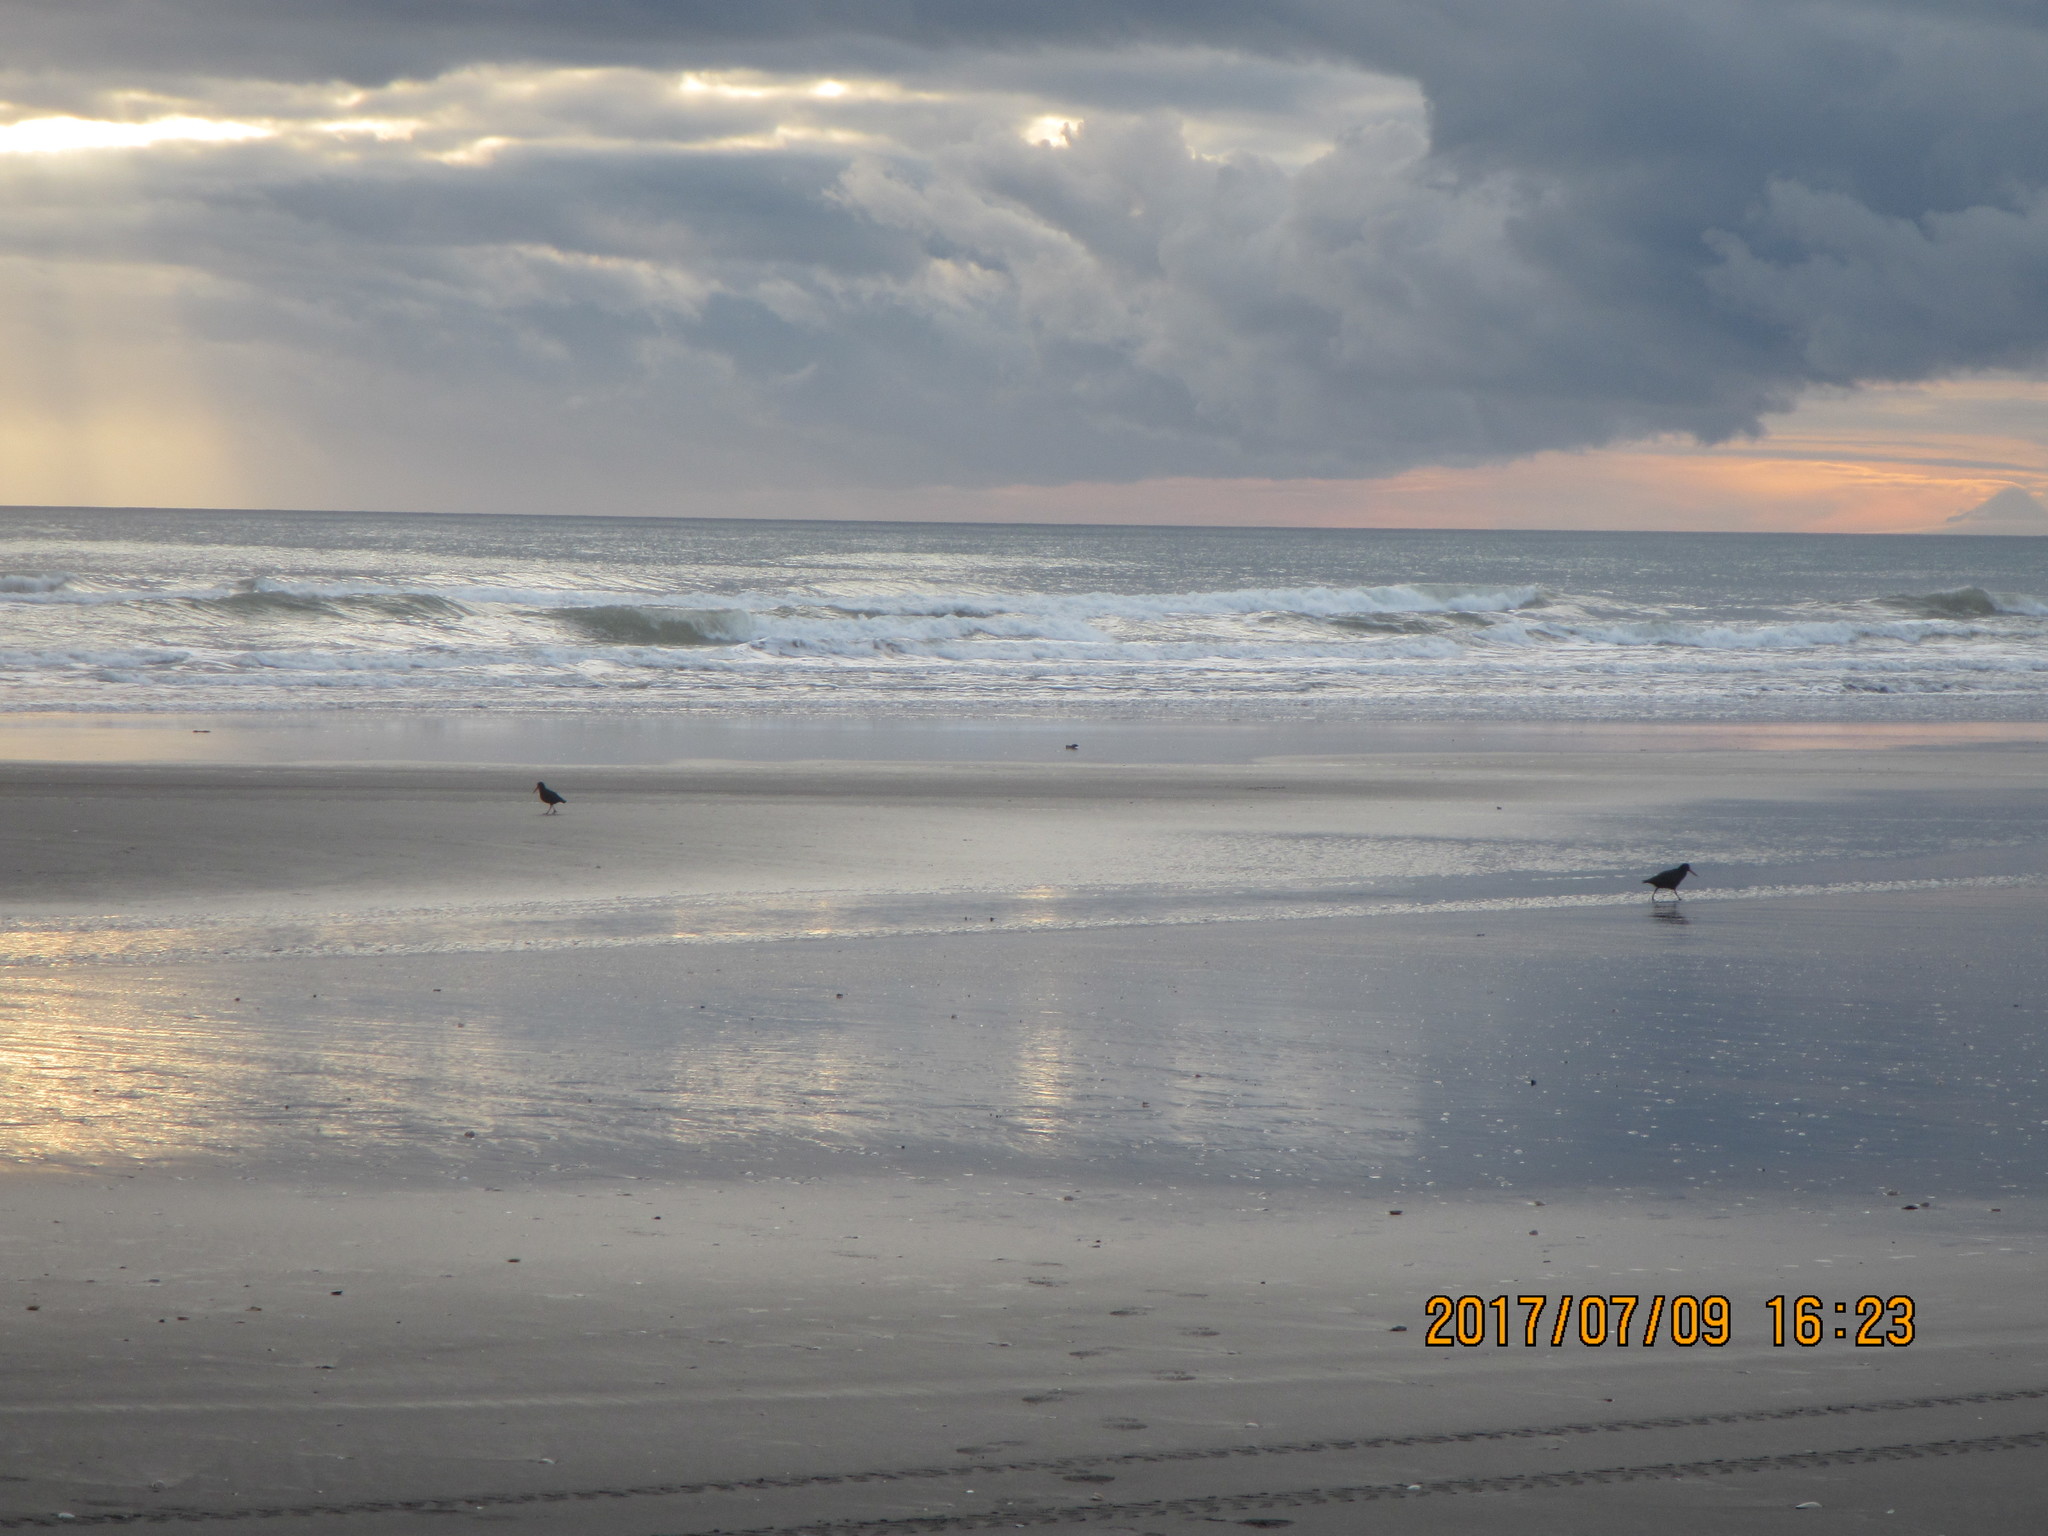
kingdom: Animalia
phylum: Chordata
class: Aves
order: Charadriiformes
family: Haematopodidae
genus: Haematopus
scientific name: Haematopus unicolor
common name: Variable oystercatcher
